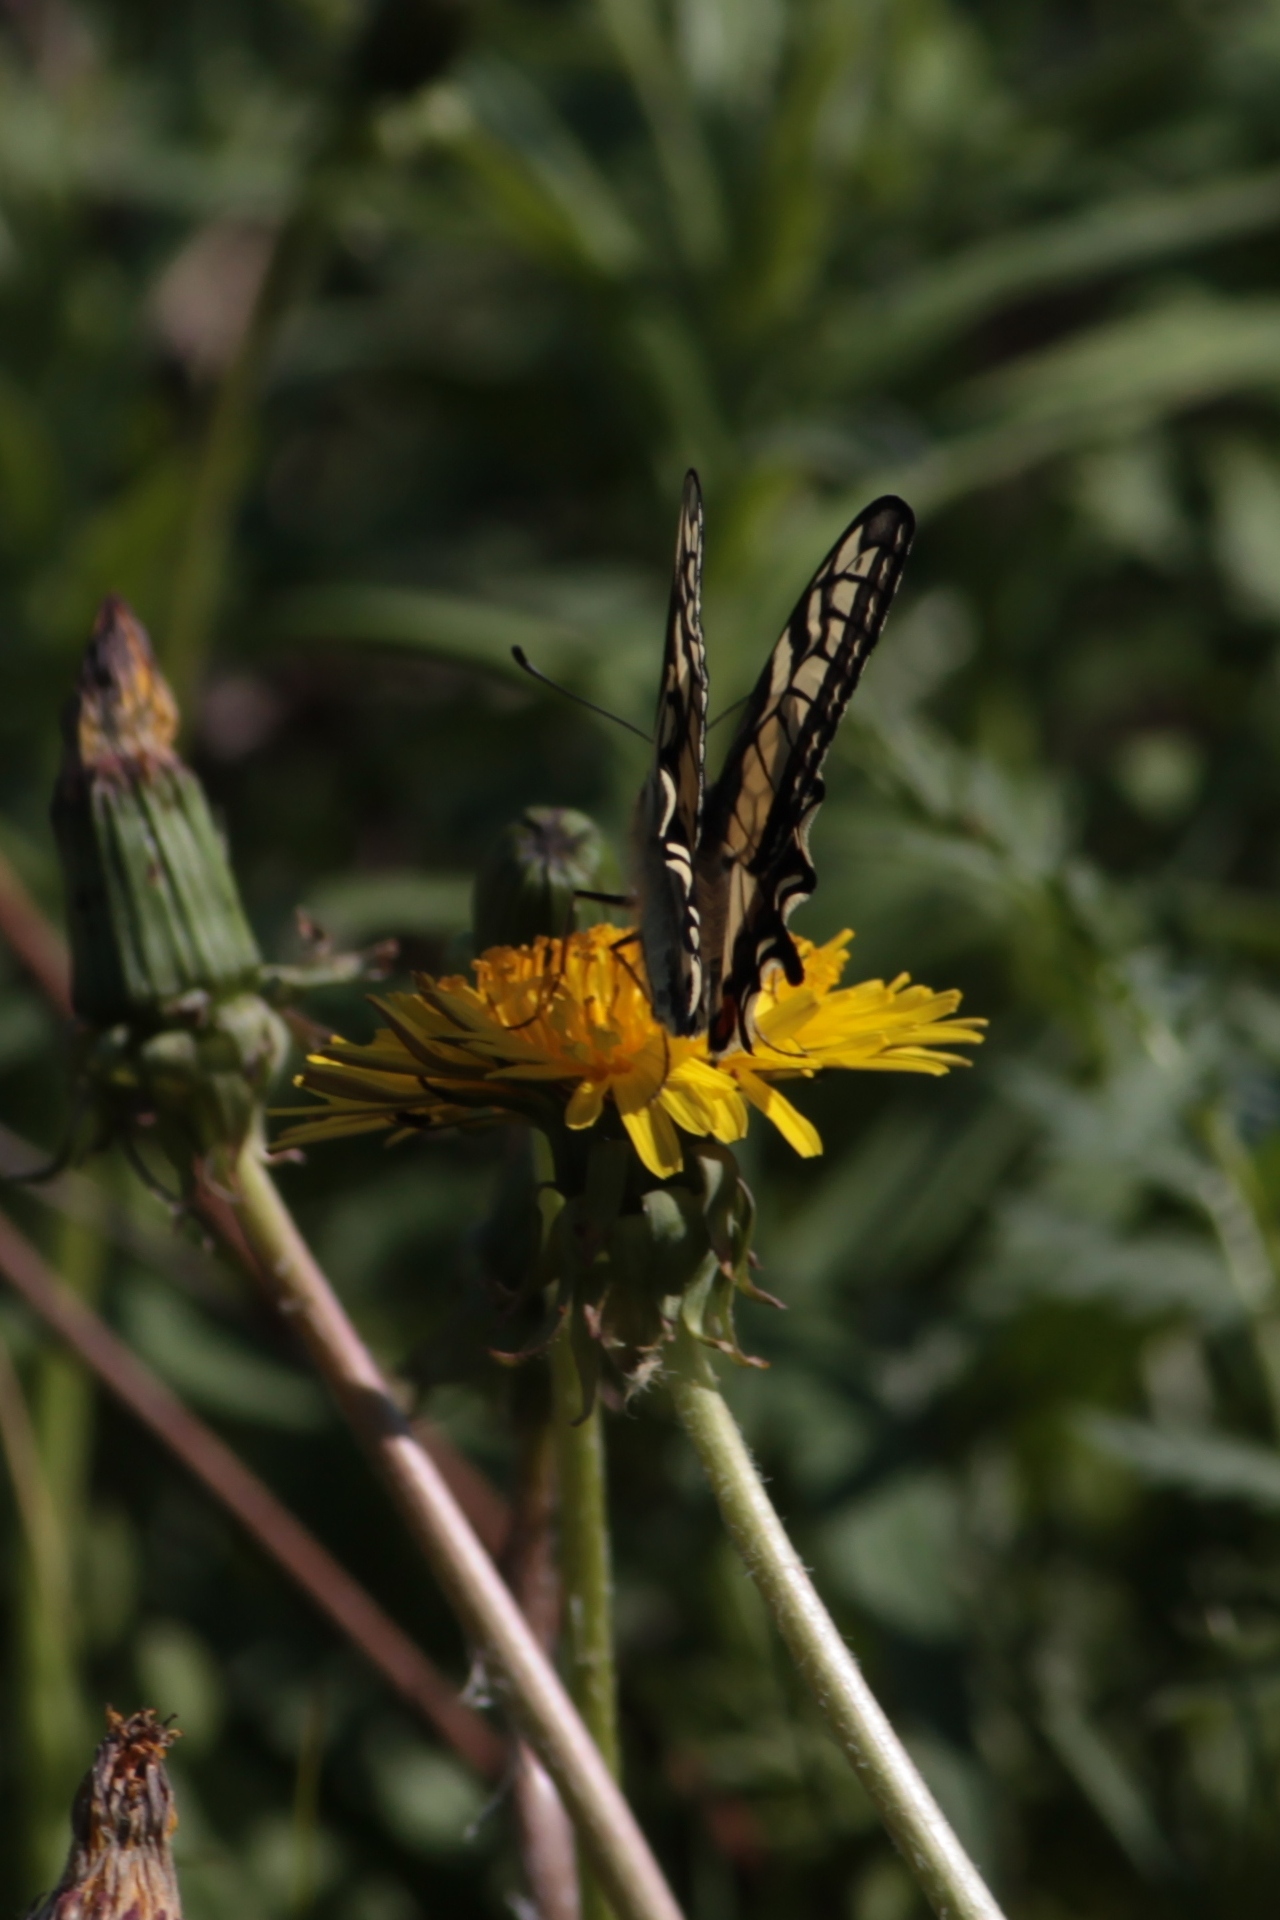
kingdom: Animalia
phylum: Arthropoda
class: Insecta
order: Lepidoptera
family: Papilionidae
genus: Papilio
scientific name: Papilio machaon
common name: Swallowtail
